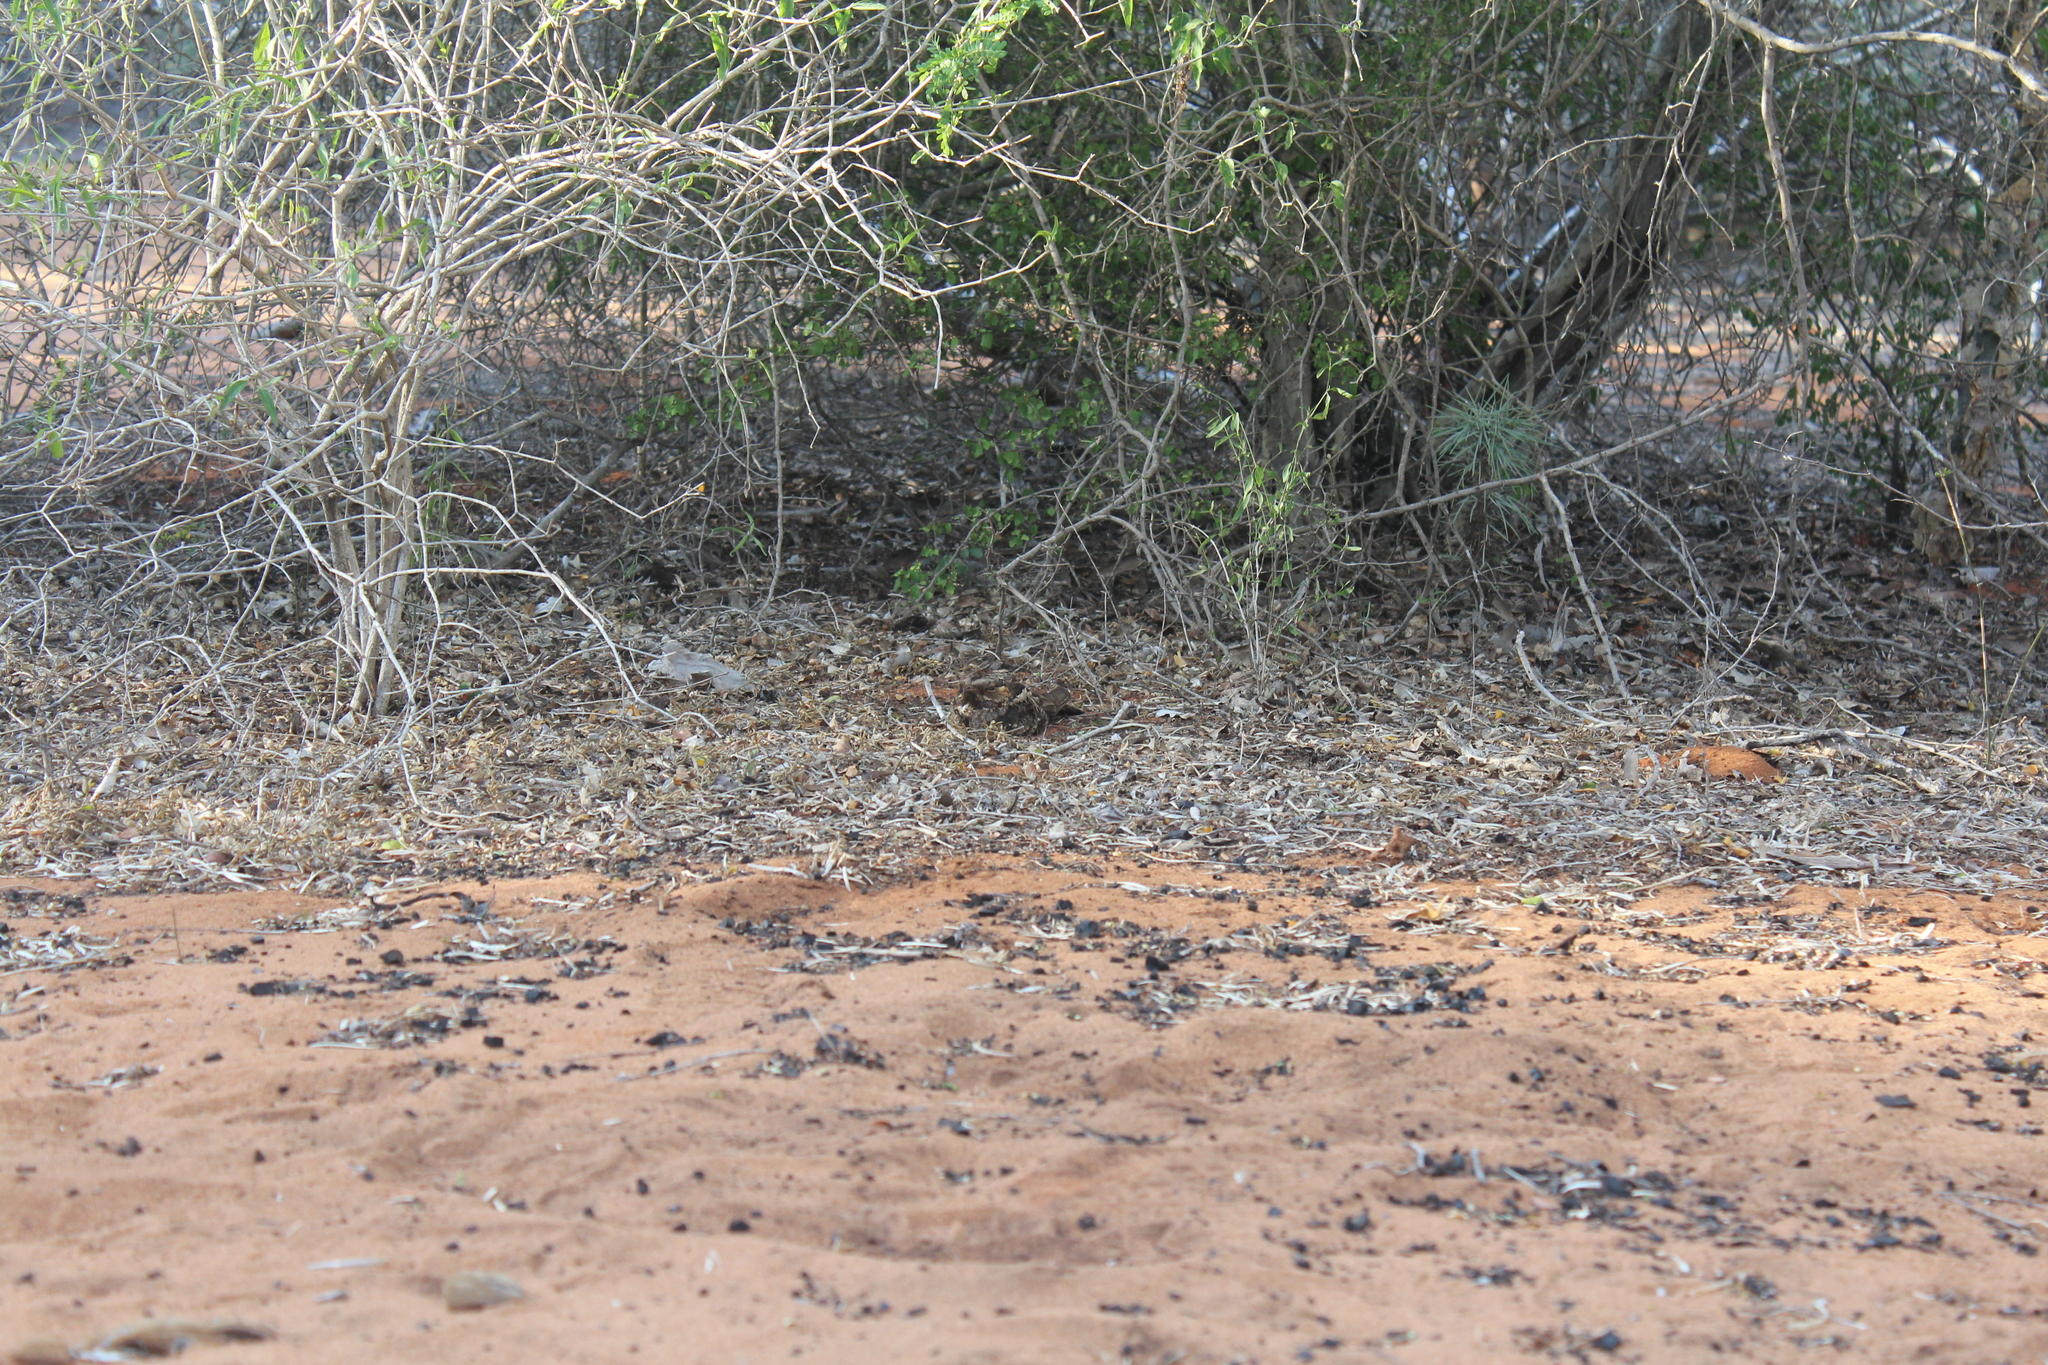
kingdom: Animalia
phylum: Chordata
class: Aves
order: Caprimulgiformes
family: Caprimulgidae
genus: Caprimulgus
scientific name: Caprimulgus madagascariensis
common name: Madagascar nightjar
